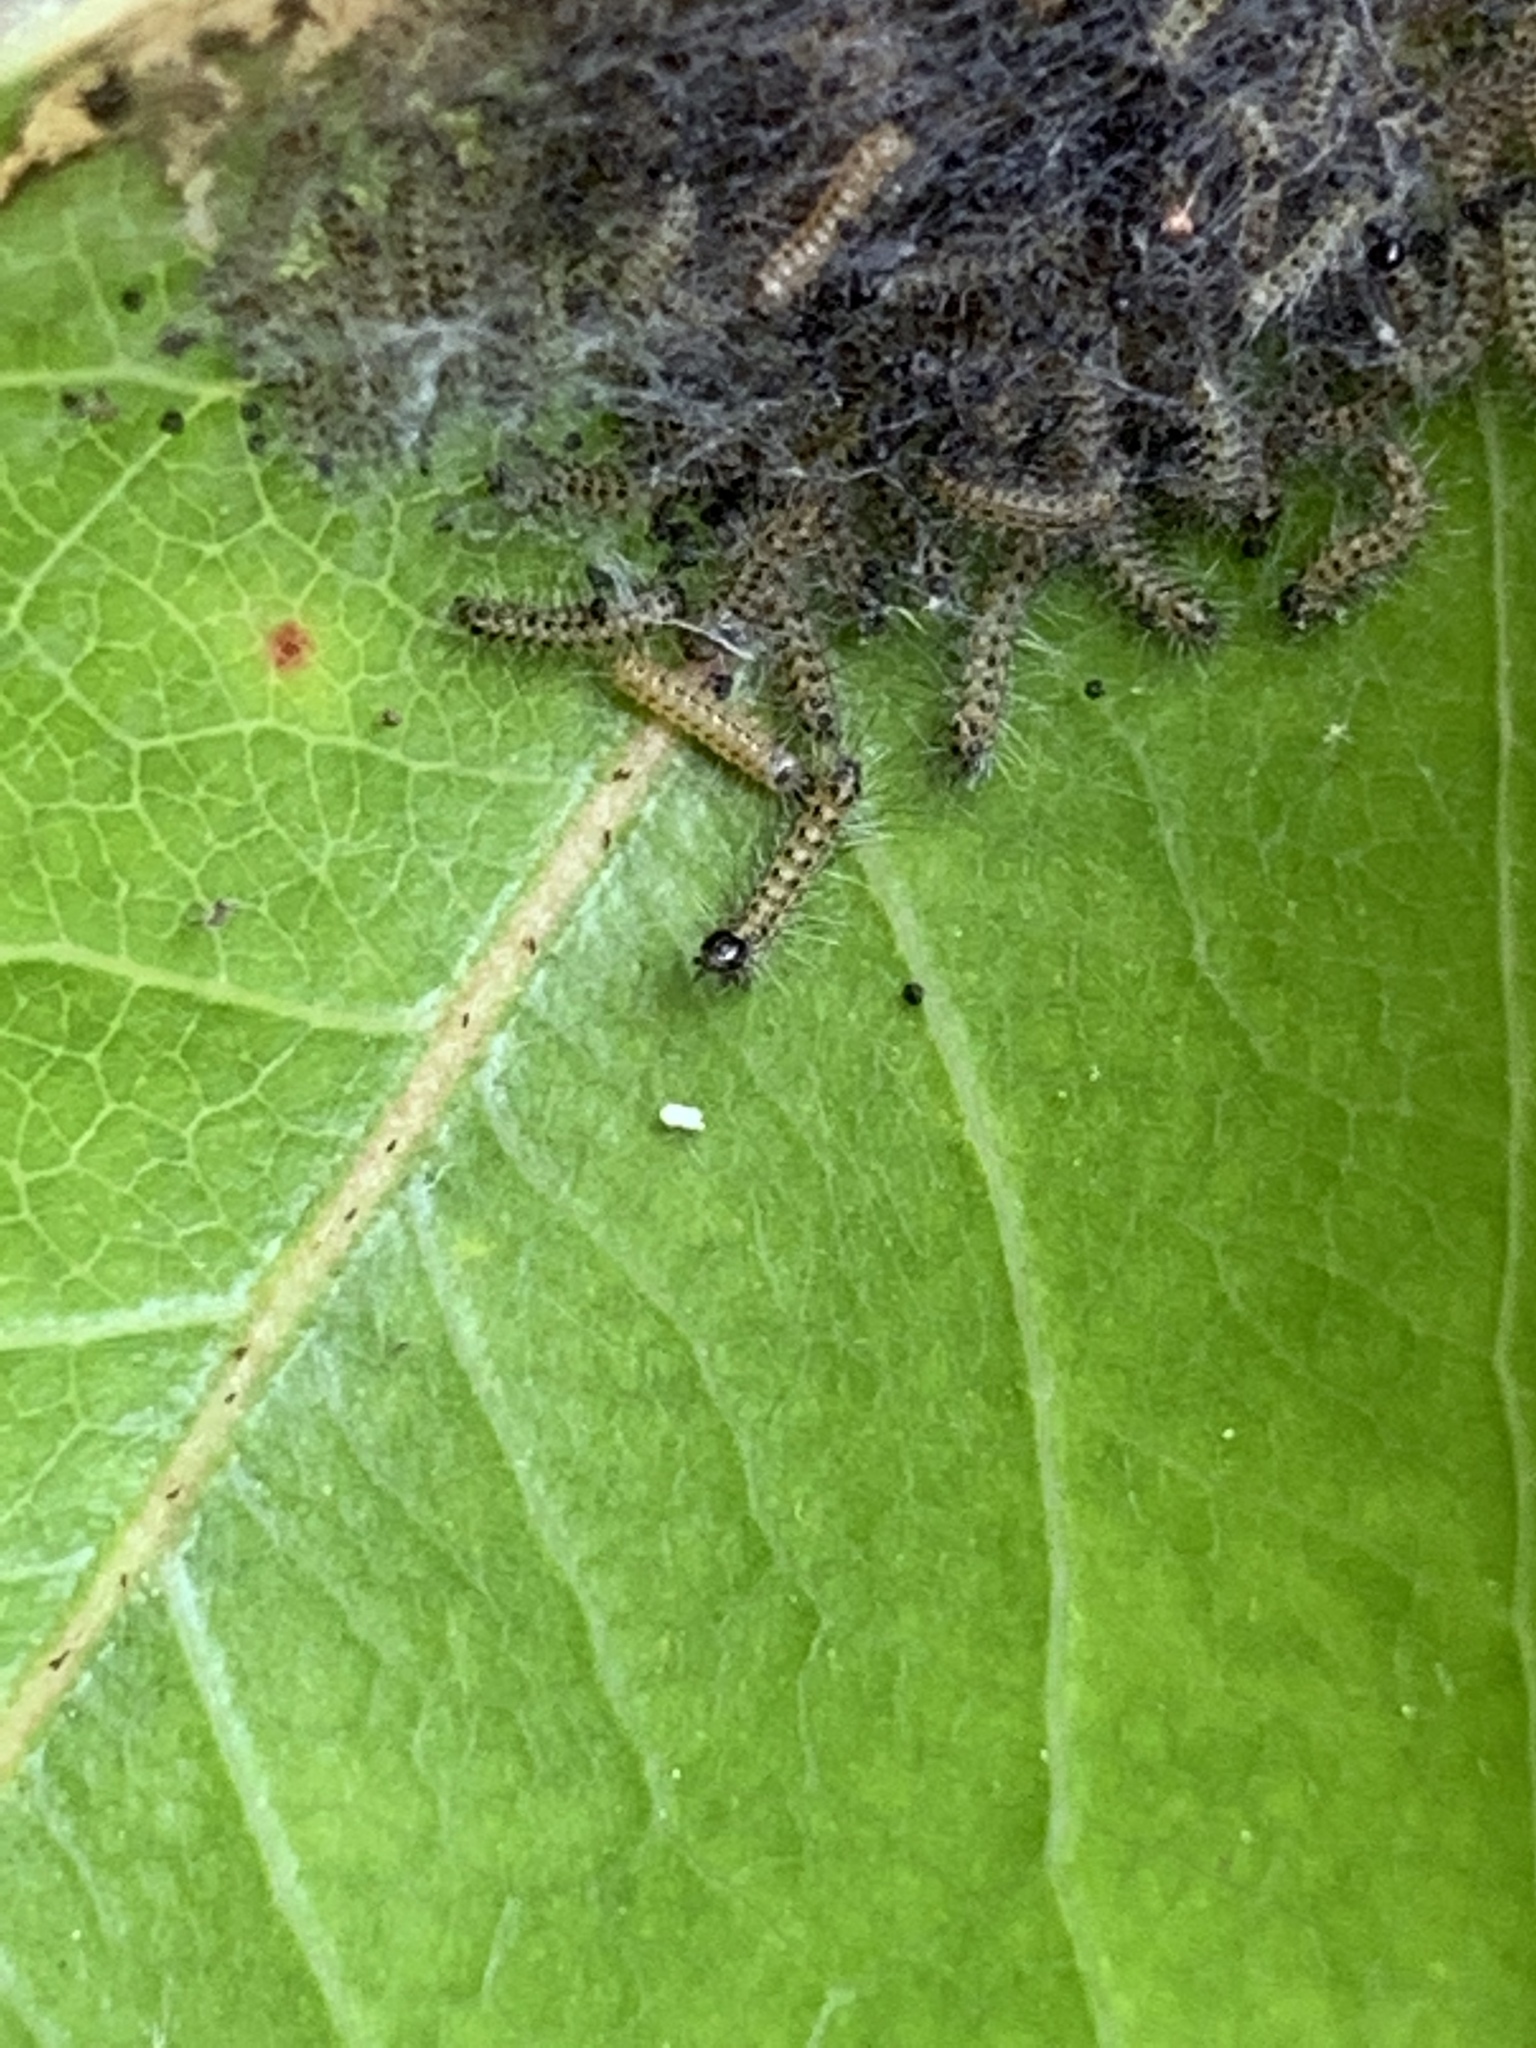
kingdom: Animalia
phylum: Arthropoda
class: Insecta
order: Lepidoptera
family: Lasiocampidae
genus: Malacosoma
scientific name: Malacosoma americana
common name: Eastern tent caterpillar moth
